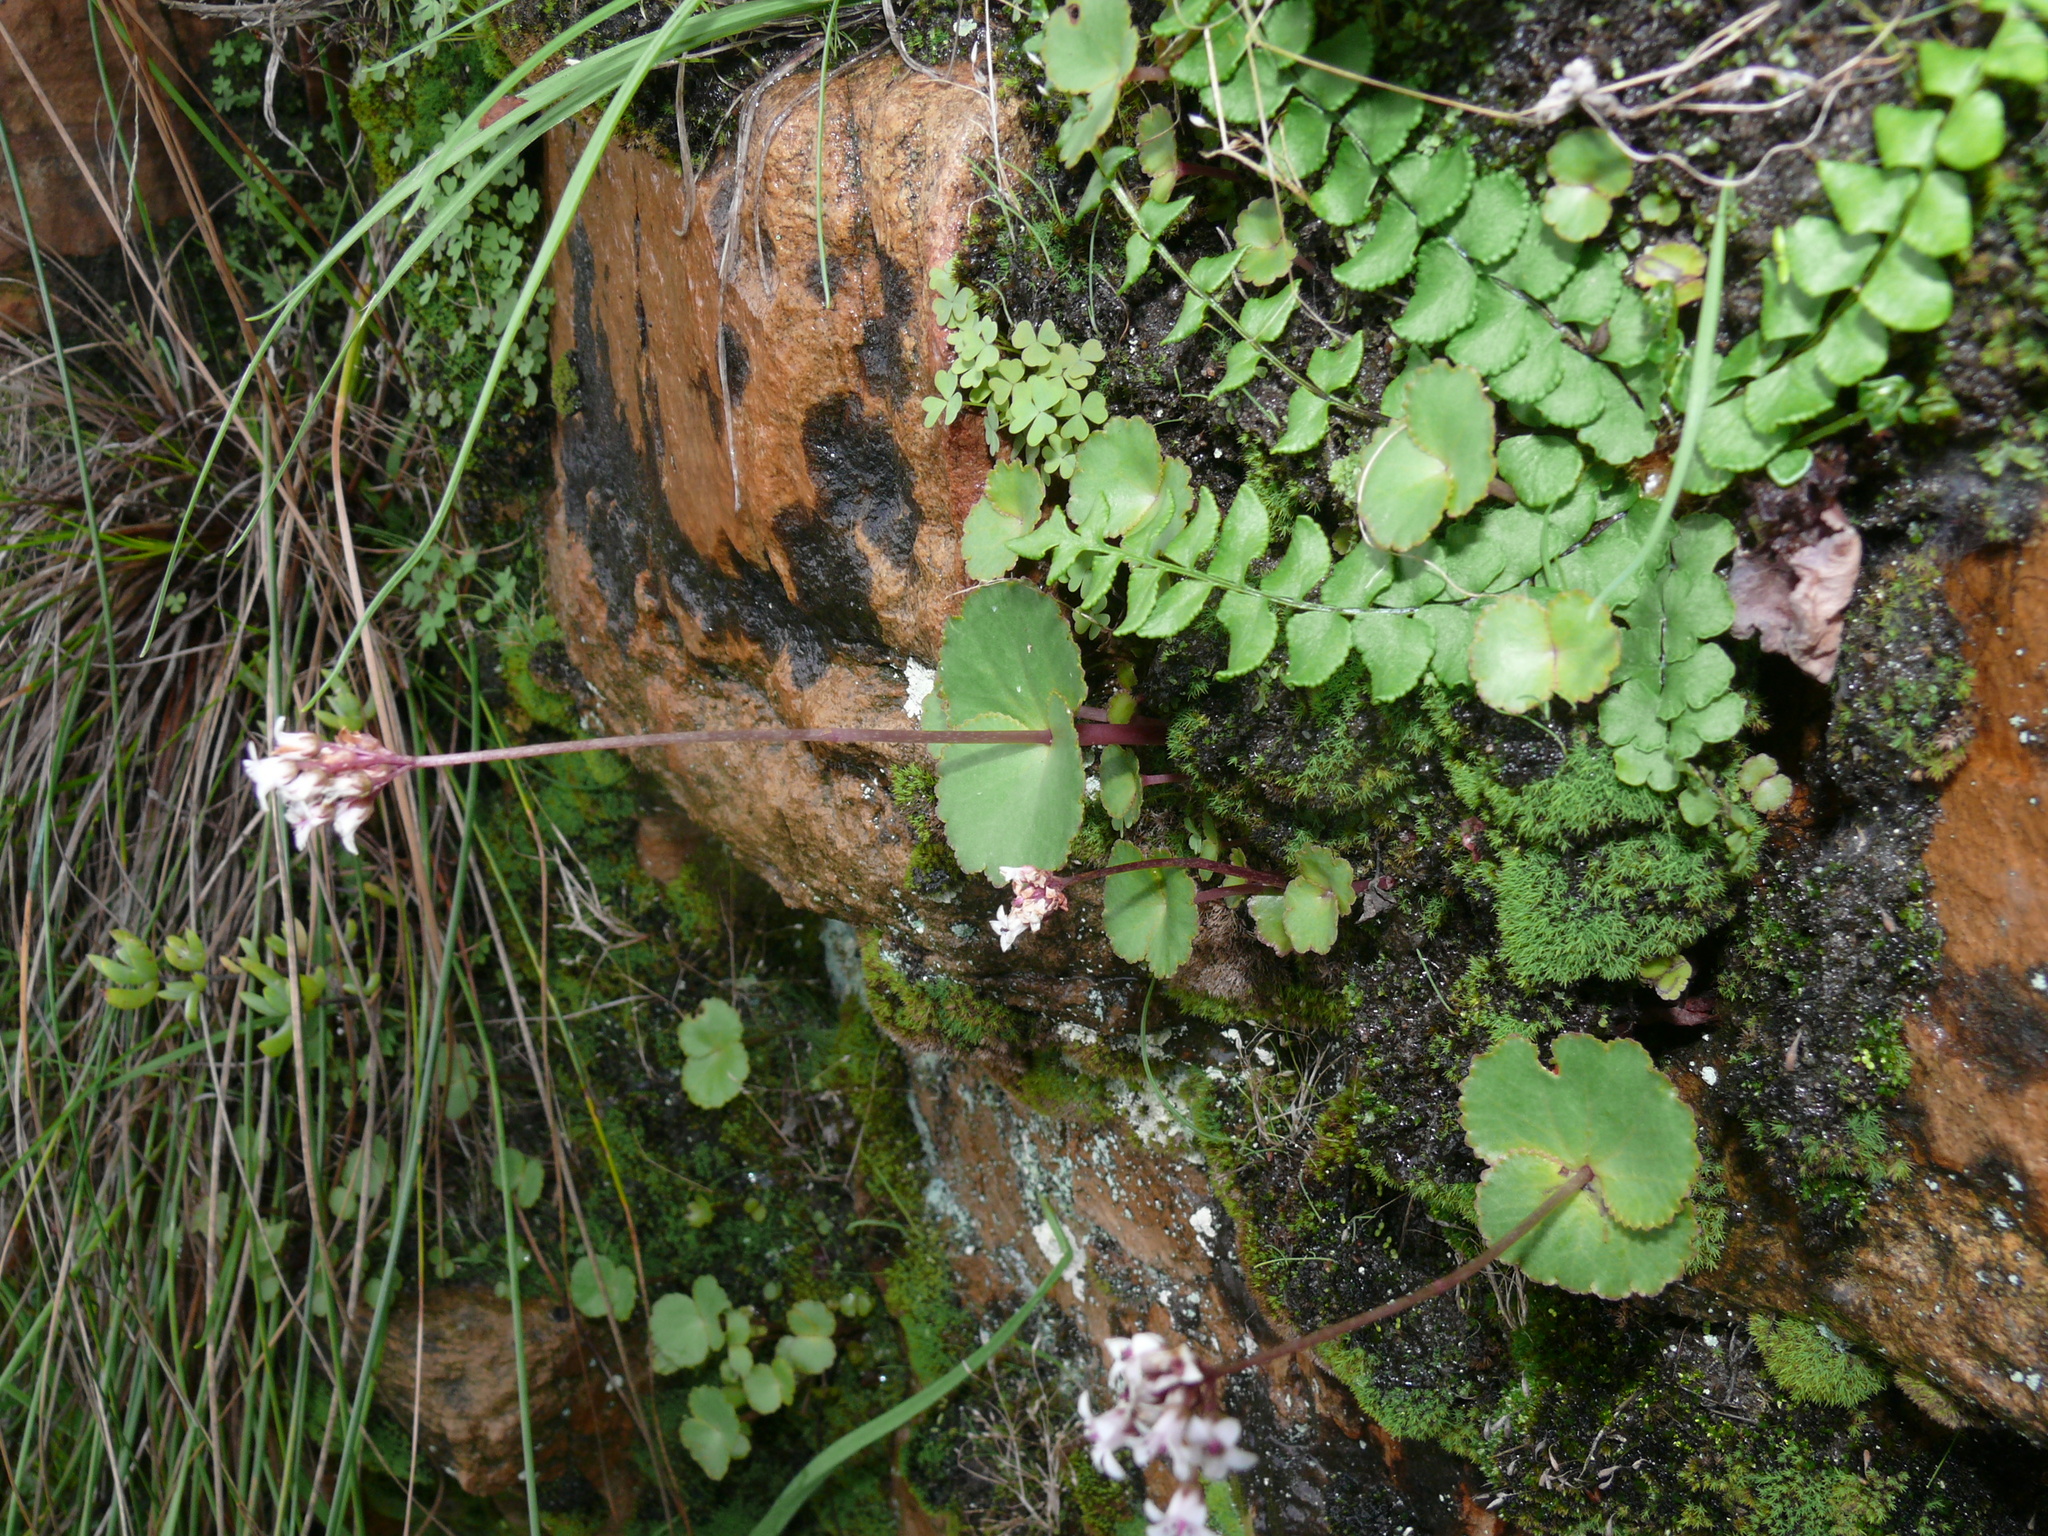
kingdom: Plantae
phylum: Tracheophyta
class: Magnoliopsida
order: Saxifragales
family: Crassulaceae
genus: Crassula
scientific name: Crassula capensis
